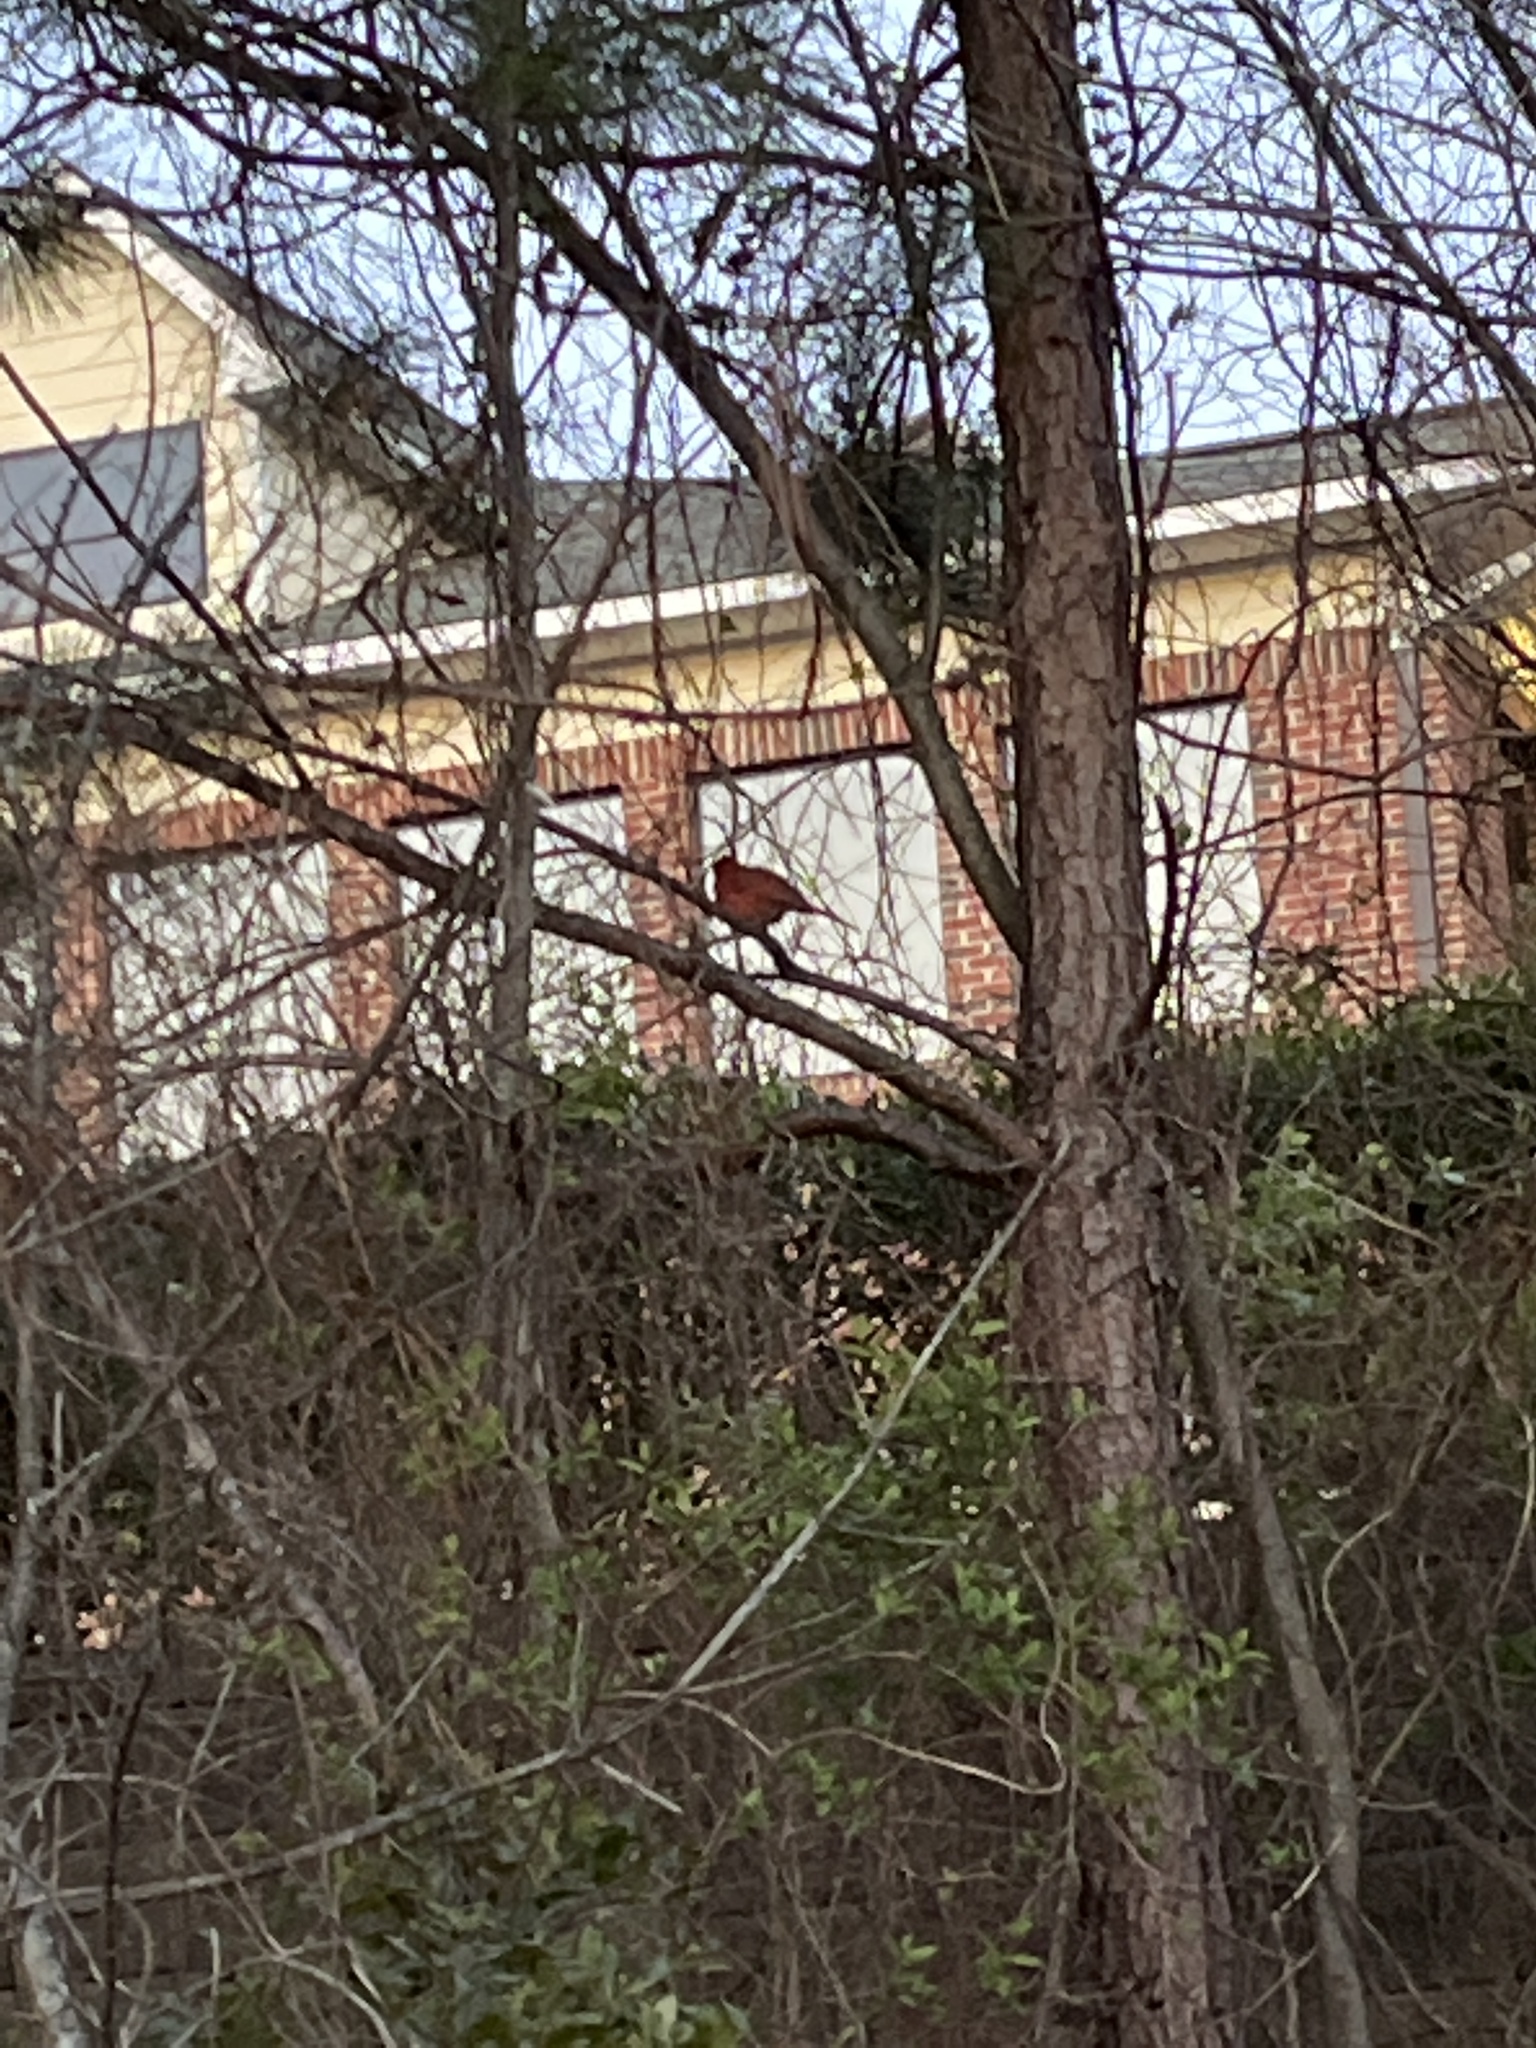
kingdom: Animalia
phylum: Chordata
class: Aves
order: Passeriformes
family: Cardinalidae
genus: Cardinalis
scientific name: Cardinalis cardinalis
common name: Northern cardinal
